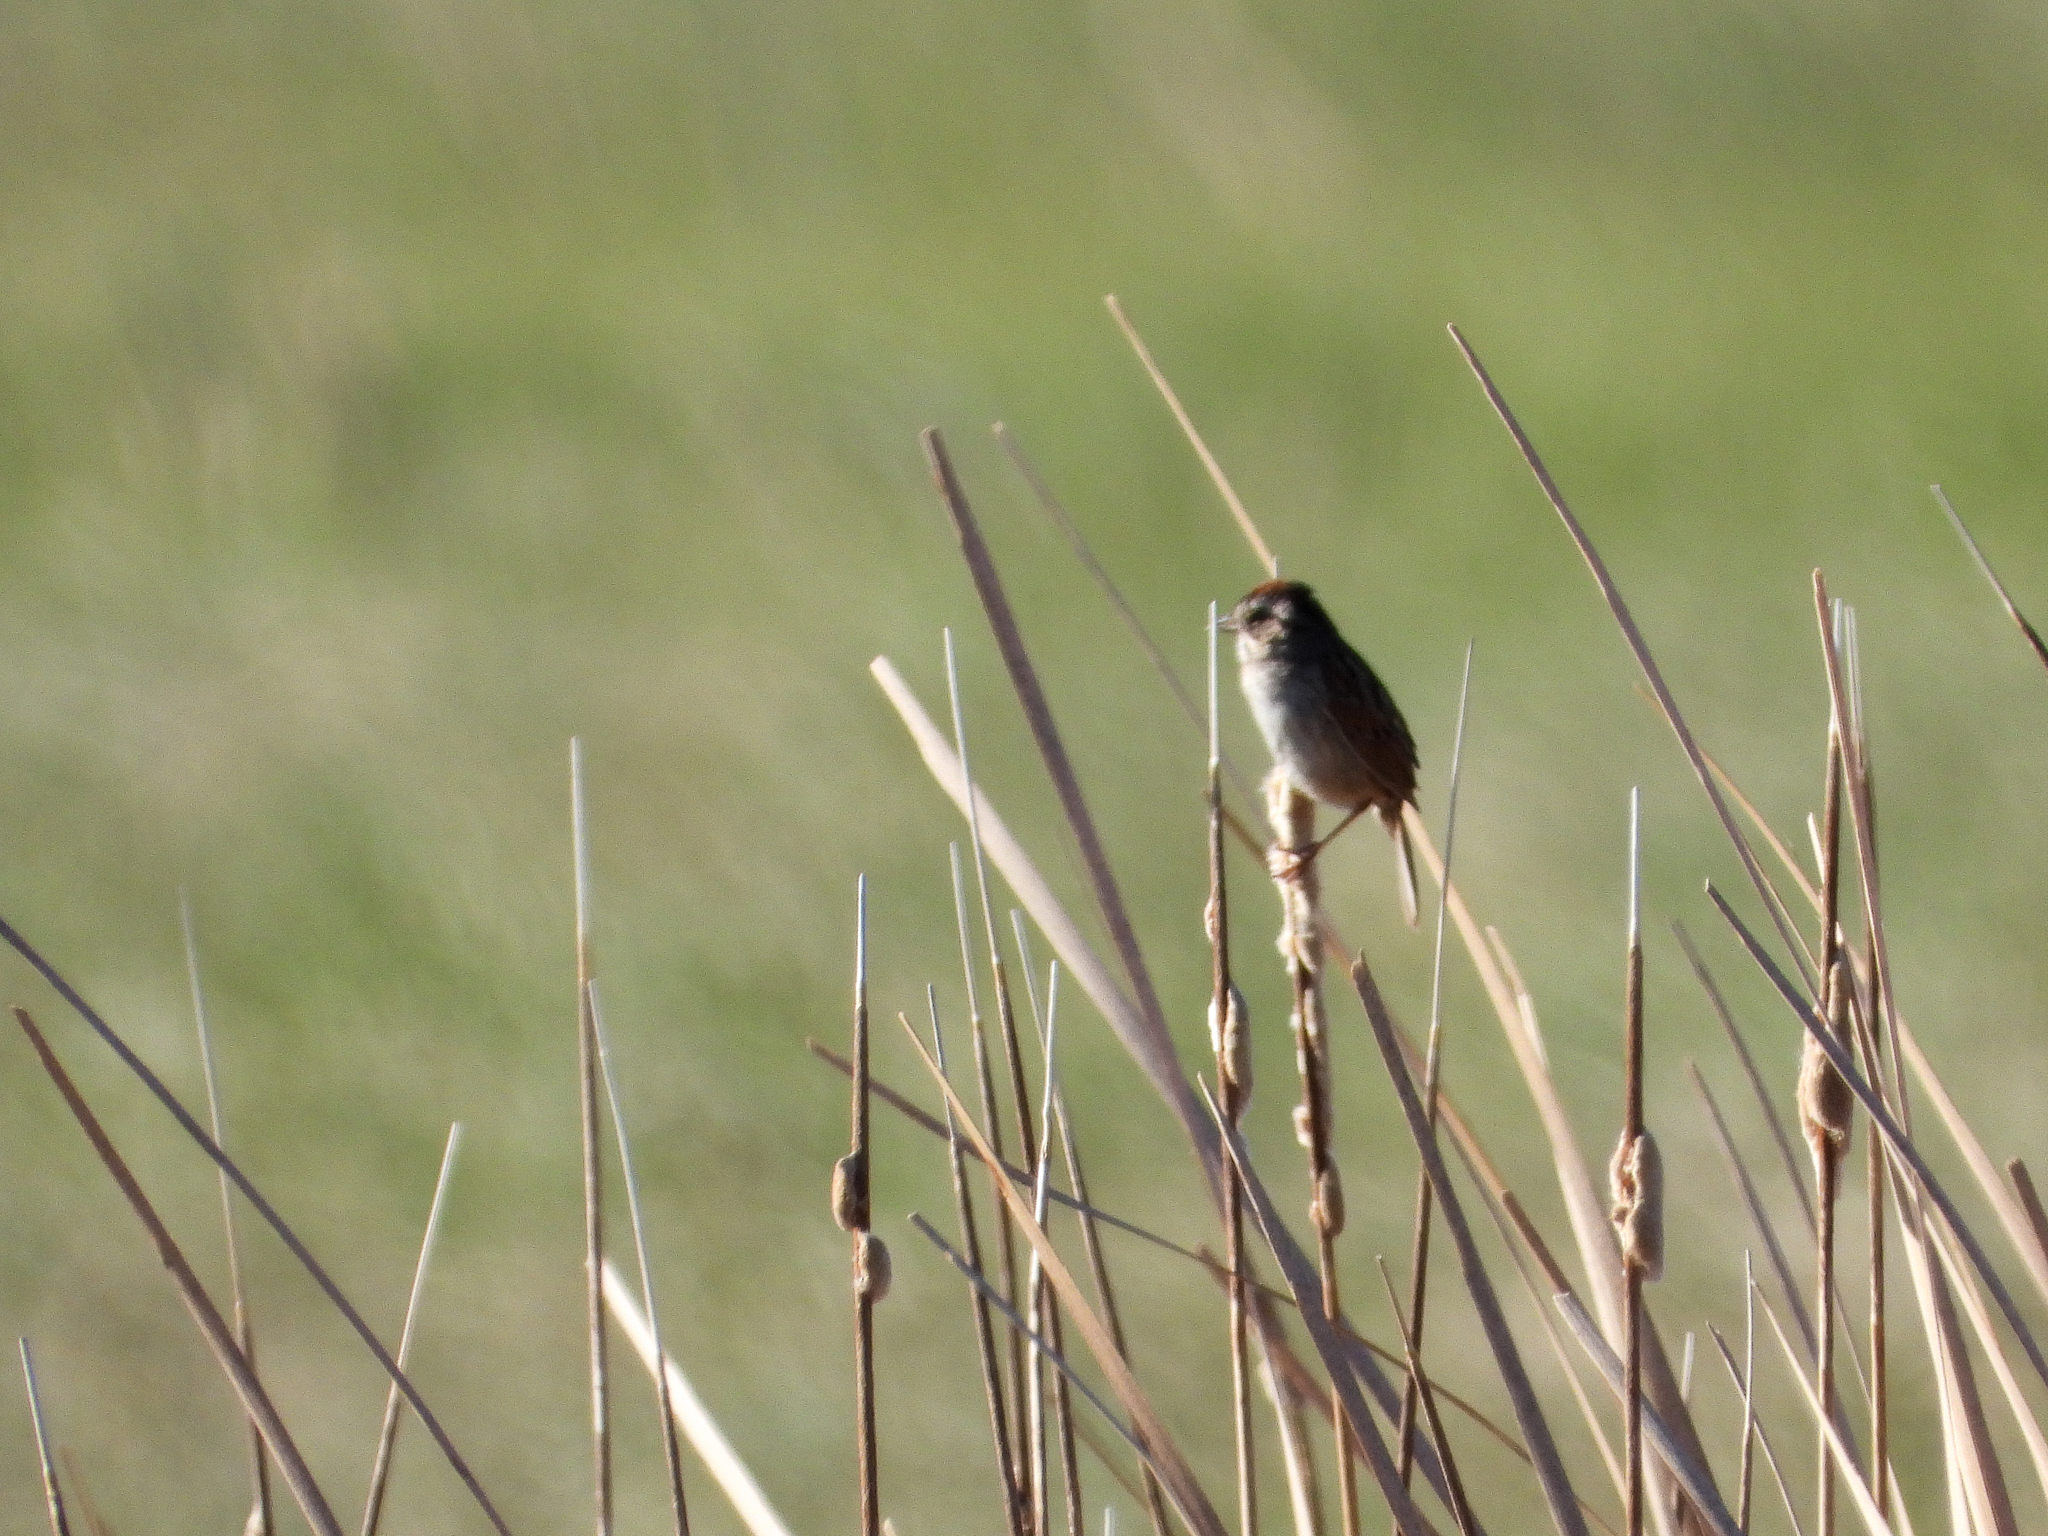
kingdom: Animalia
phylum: Chordata
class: Aves
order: Passeriformes
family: Passerellidae
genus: Melospiza
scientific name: Melospiza georgiana
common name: Swamp sparrow
